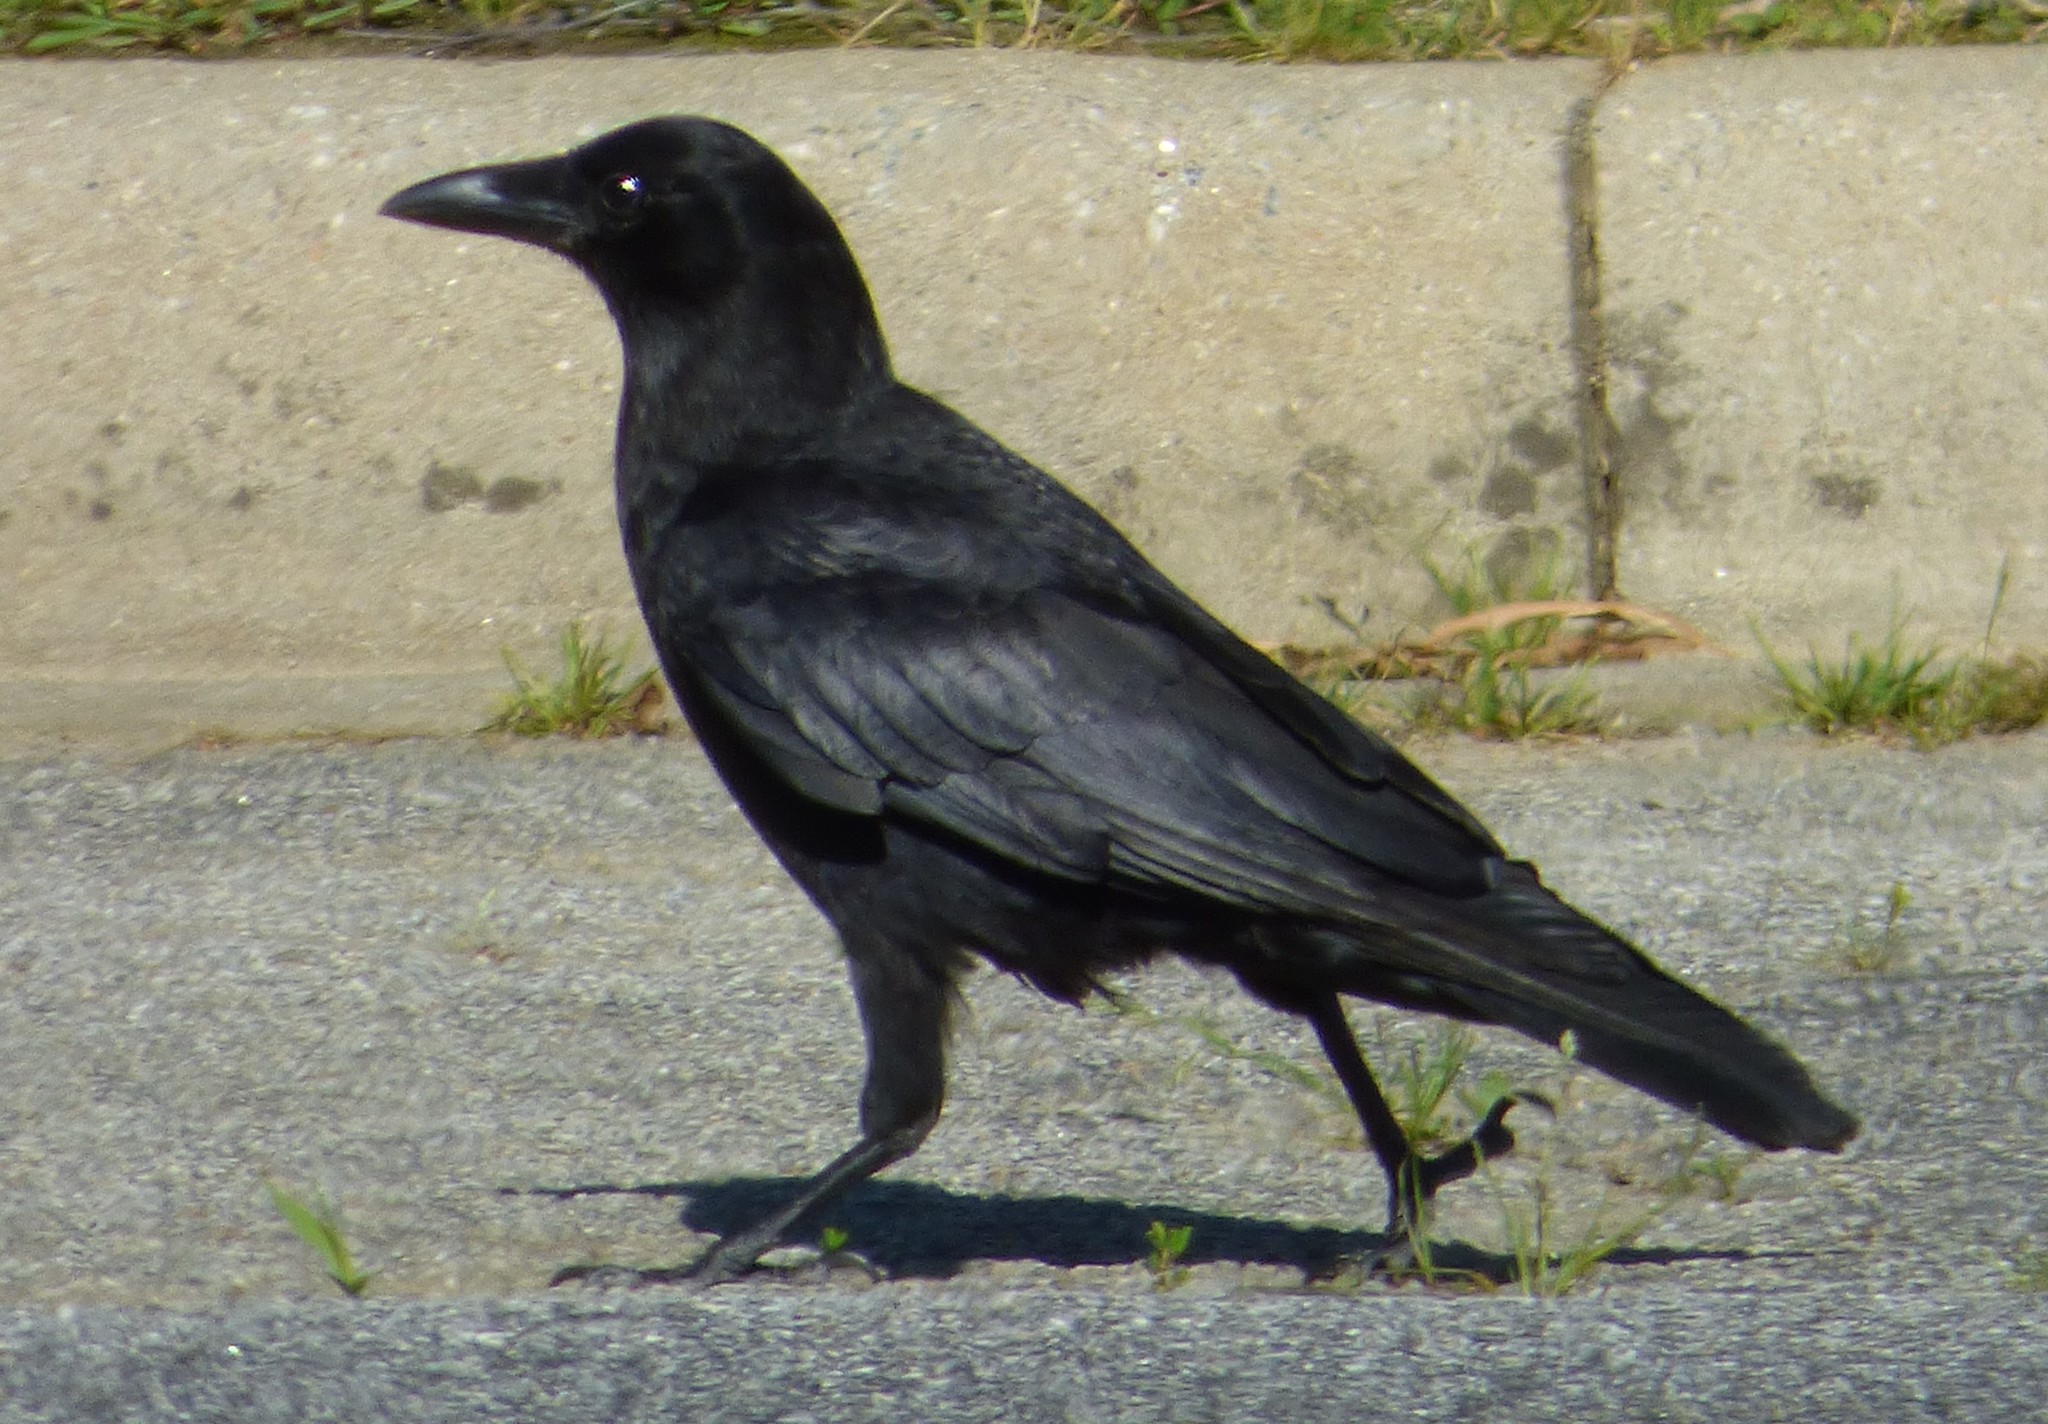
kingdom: Animalia
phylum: Chordata
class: Aves
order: Passeriformes
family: Corvidae
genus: Corvus
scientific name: Corvus brachyrhynchos
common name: American crow
